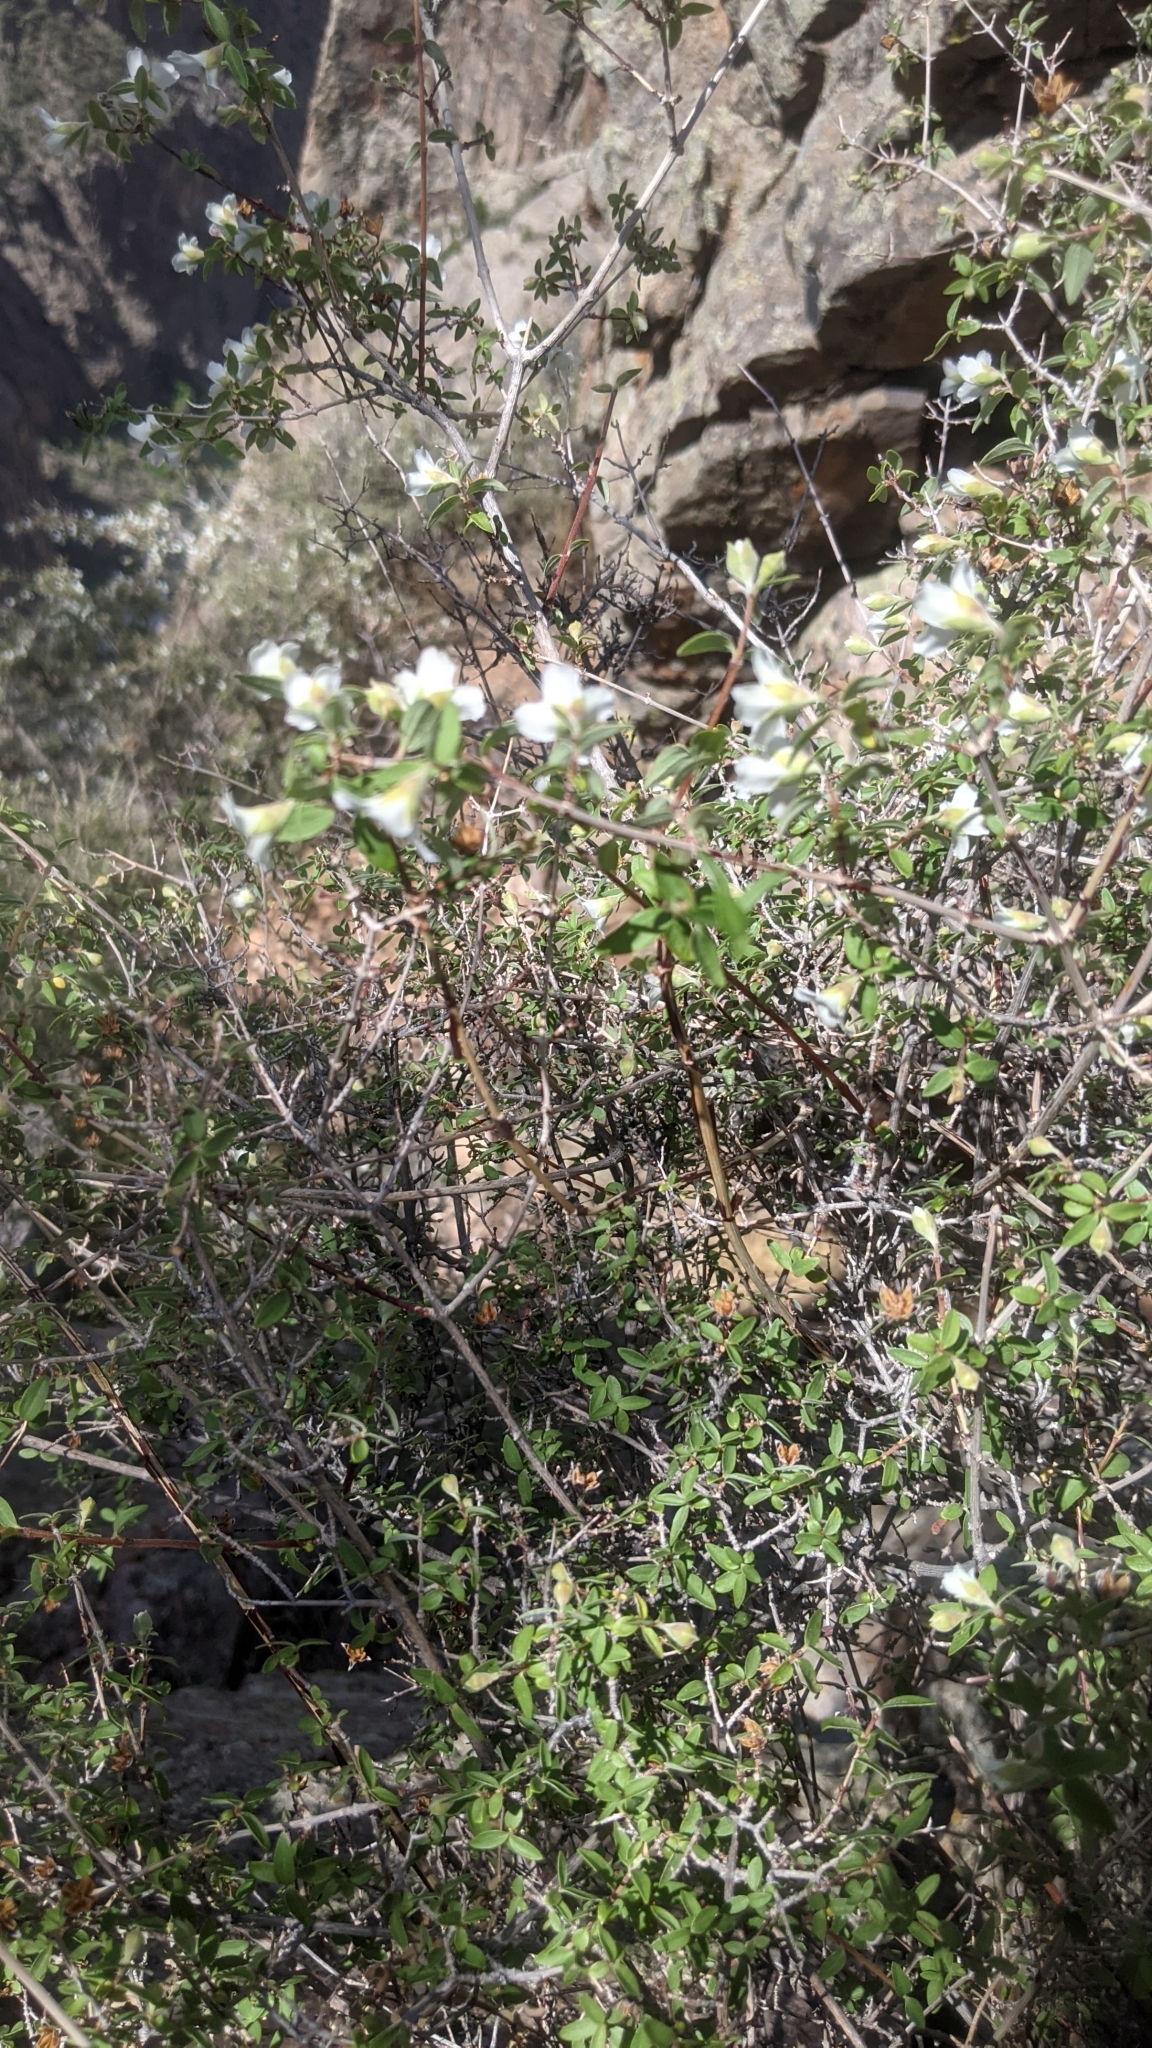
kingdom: Plantae
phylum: Tracheophyta
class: Magnoliopsida
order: Cornales
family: Hydrangeaceae
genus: Philadelphus
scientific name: Philadelphus microphyllus
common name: Desert mock orange
